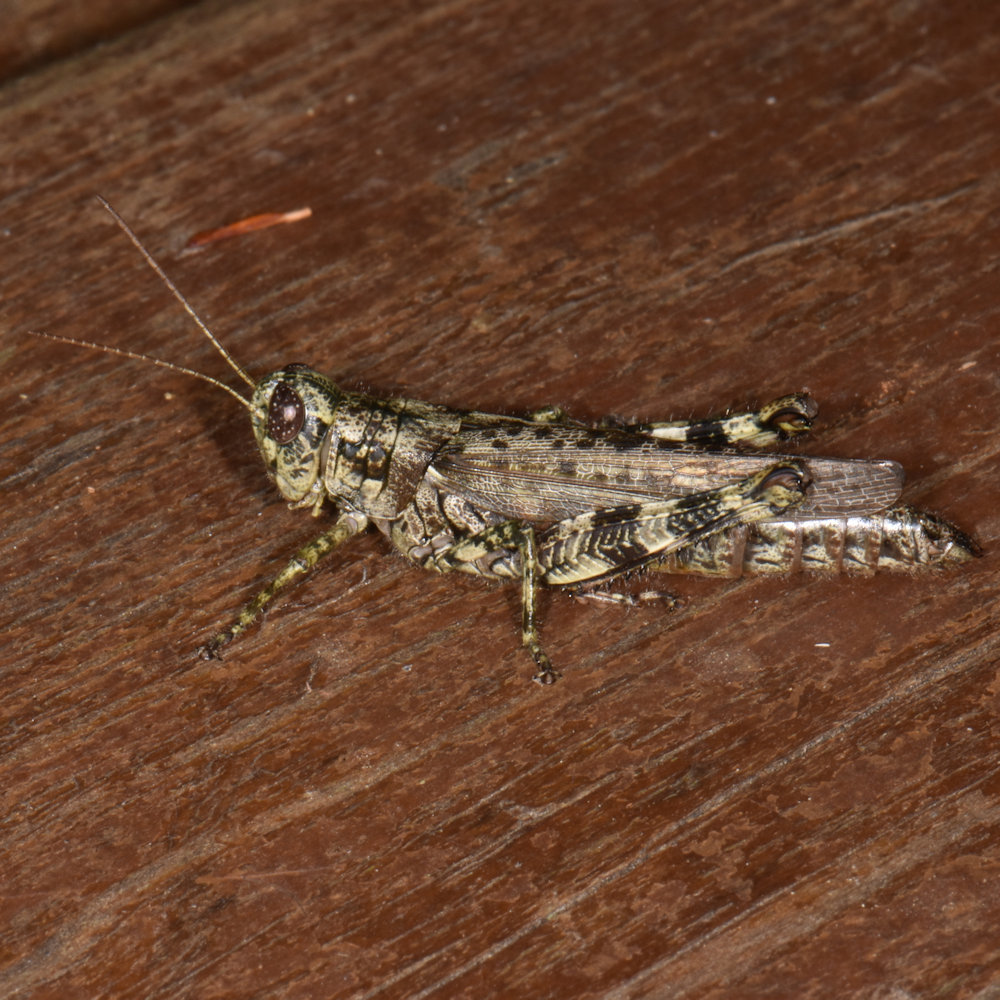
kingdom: Animalia
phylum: Arthropoda
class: Insecta
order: Orthoptera
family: Acrididae
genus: Melanoplus
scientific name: Melanoplus punctulatus
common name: Pine-tree spur-throat grasshopper
